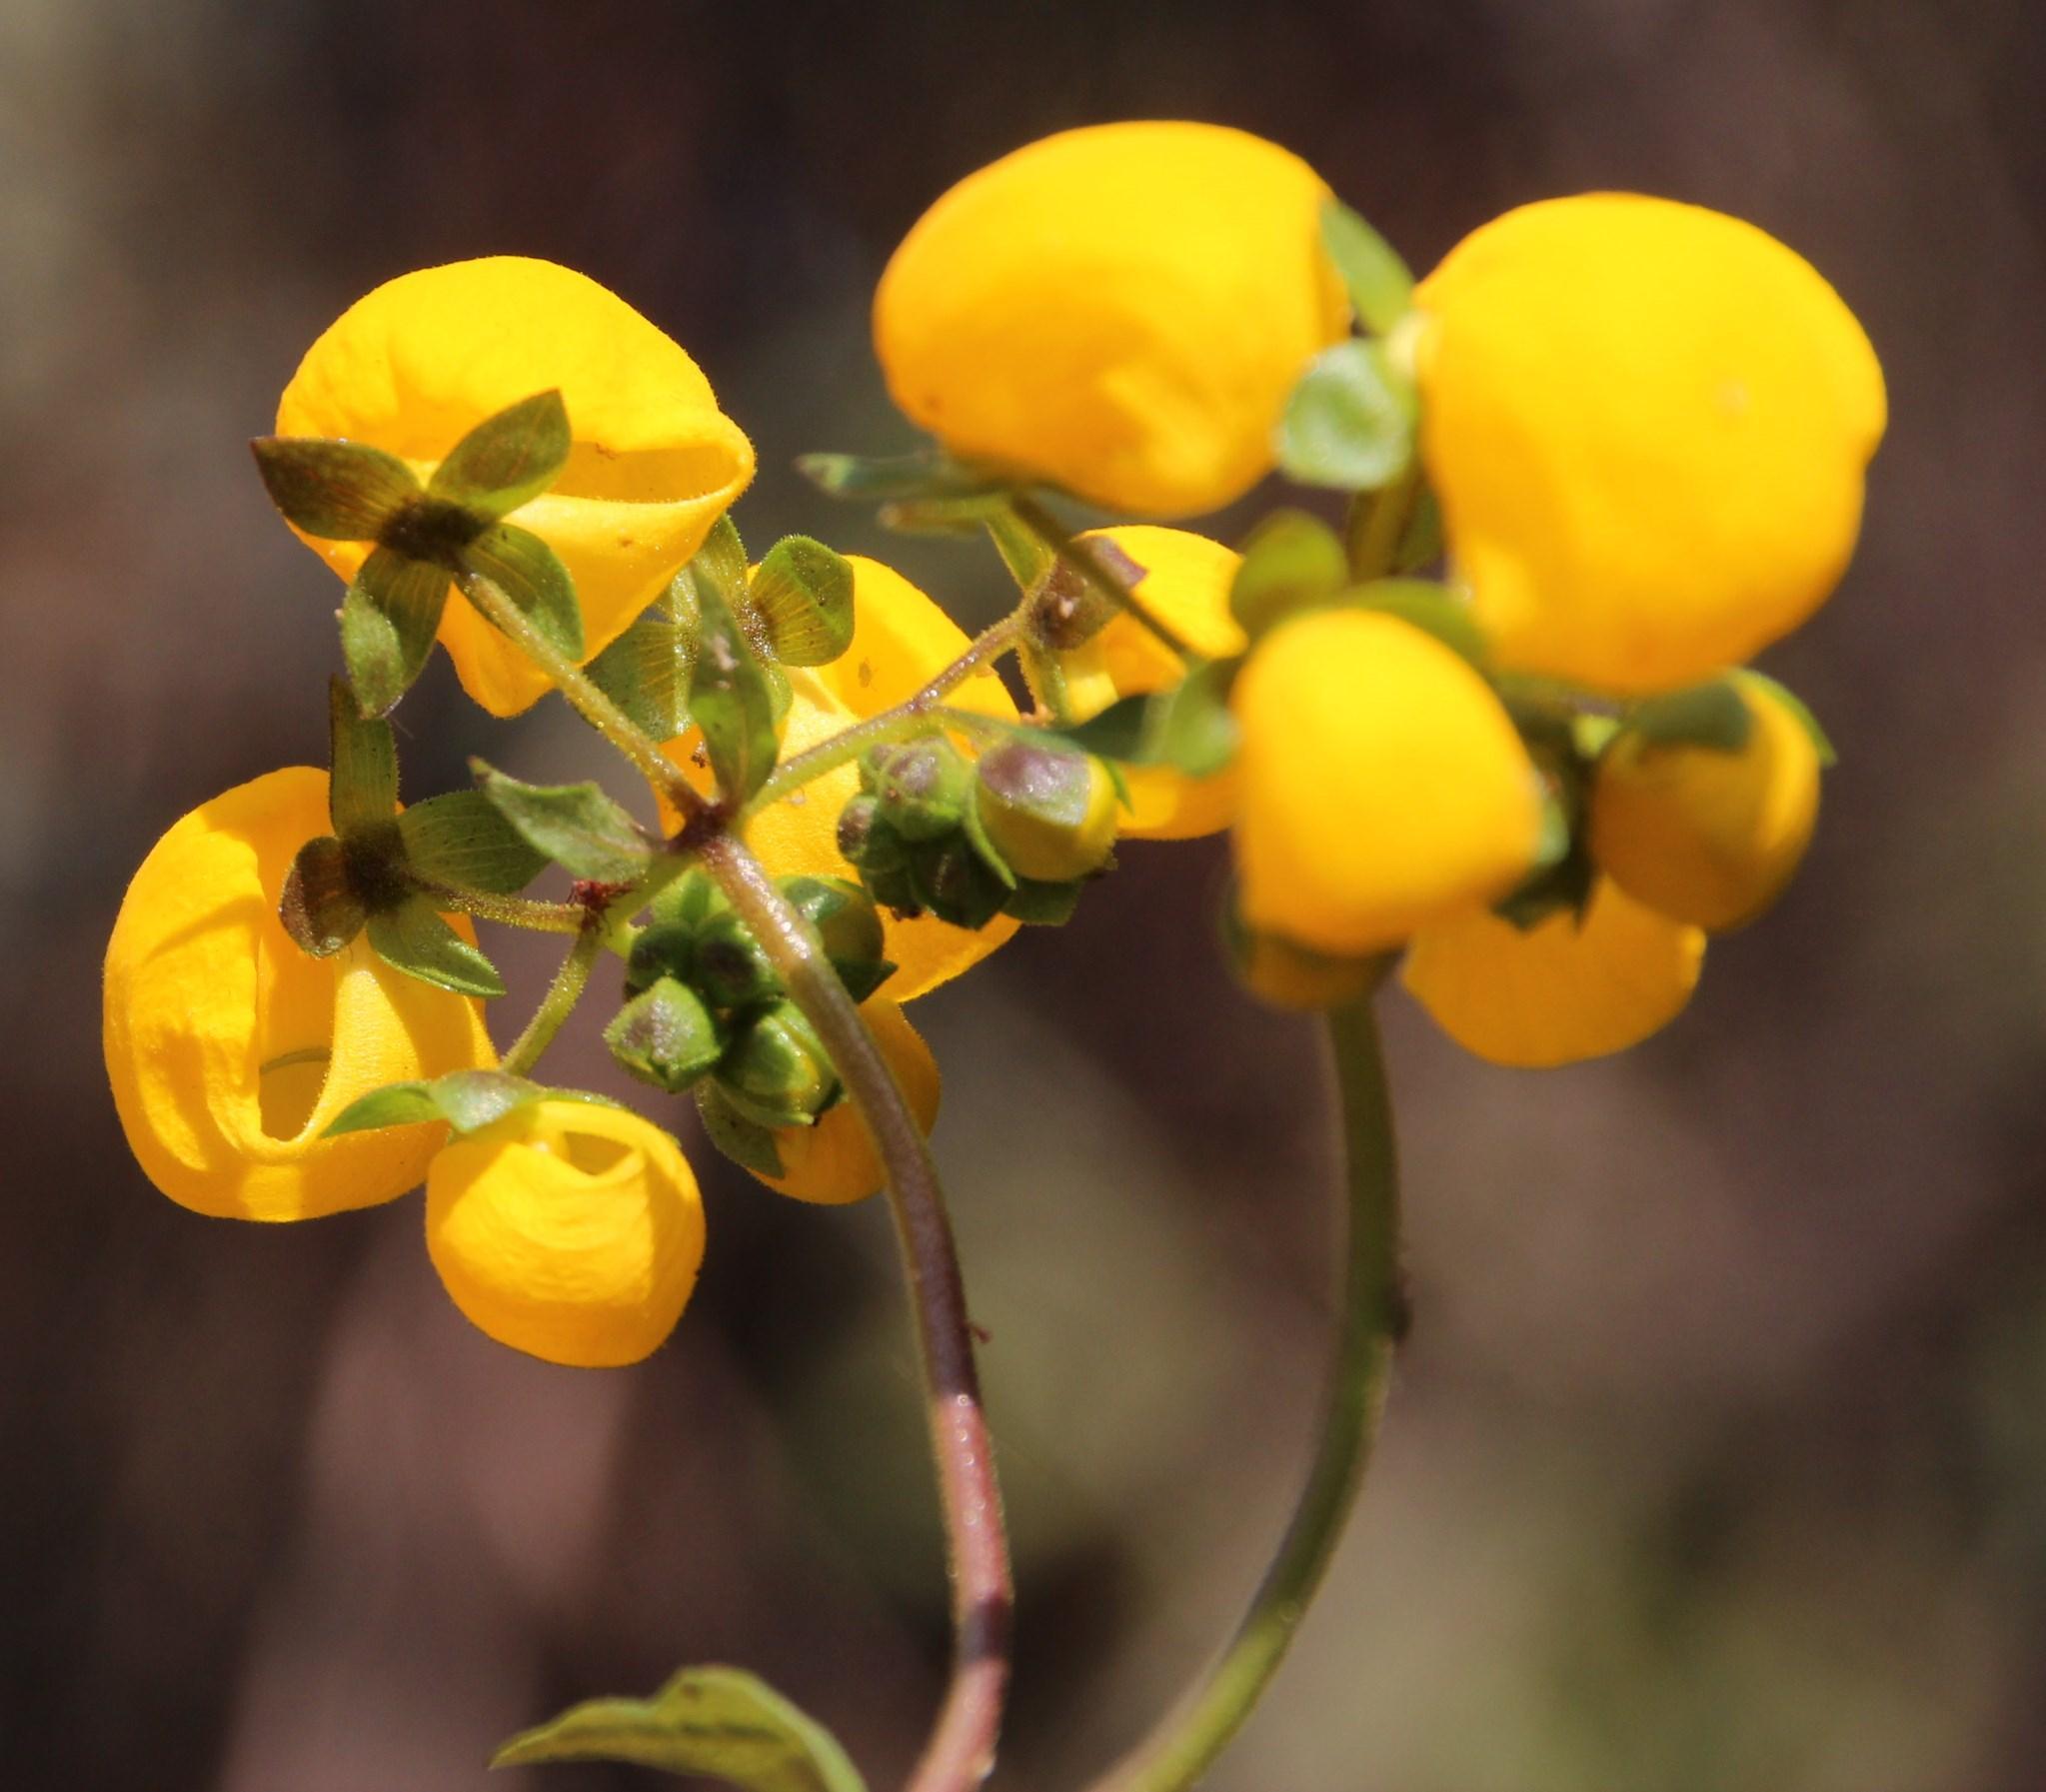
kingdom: Plantae
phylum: Tracheophyta
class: Magnoliopsida
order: Lamiales
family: Calceolariaceae
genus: Calceolaria
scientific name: Calceolaria ascendens
